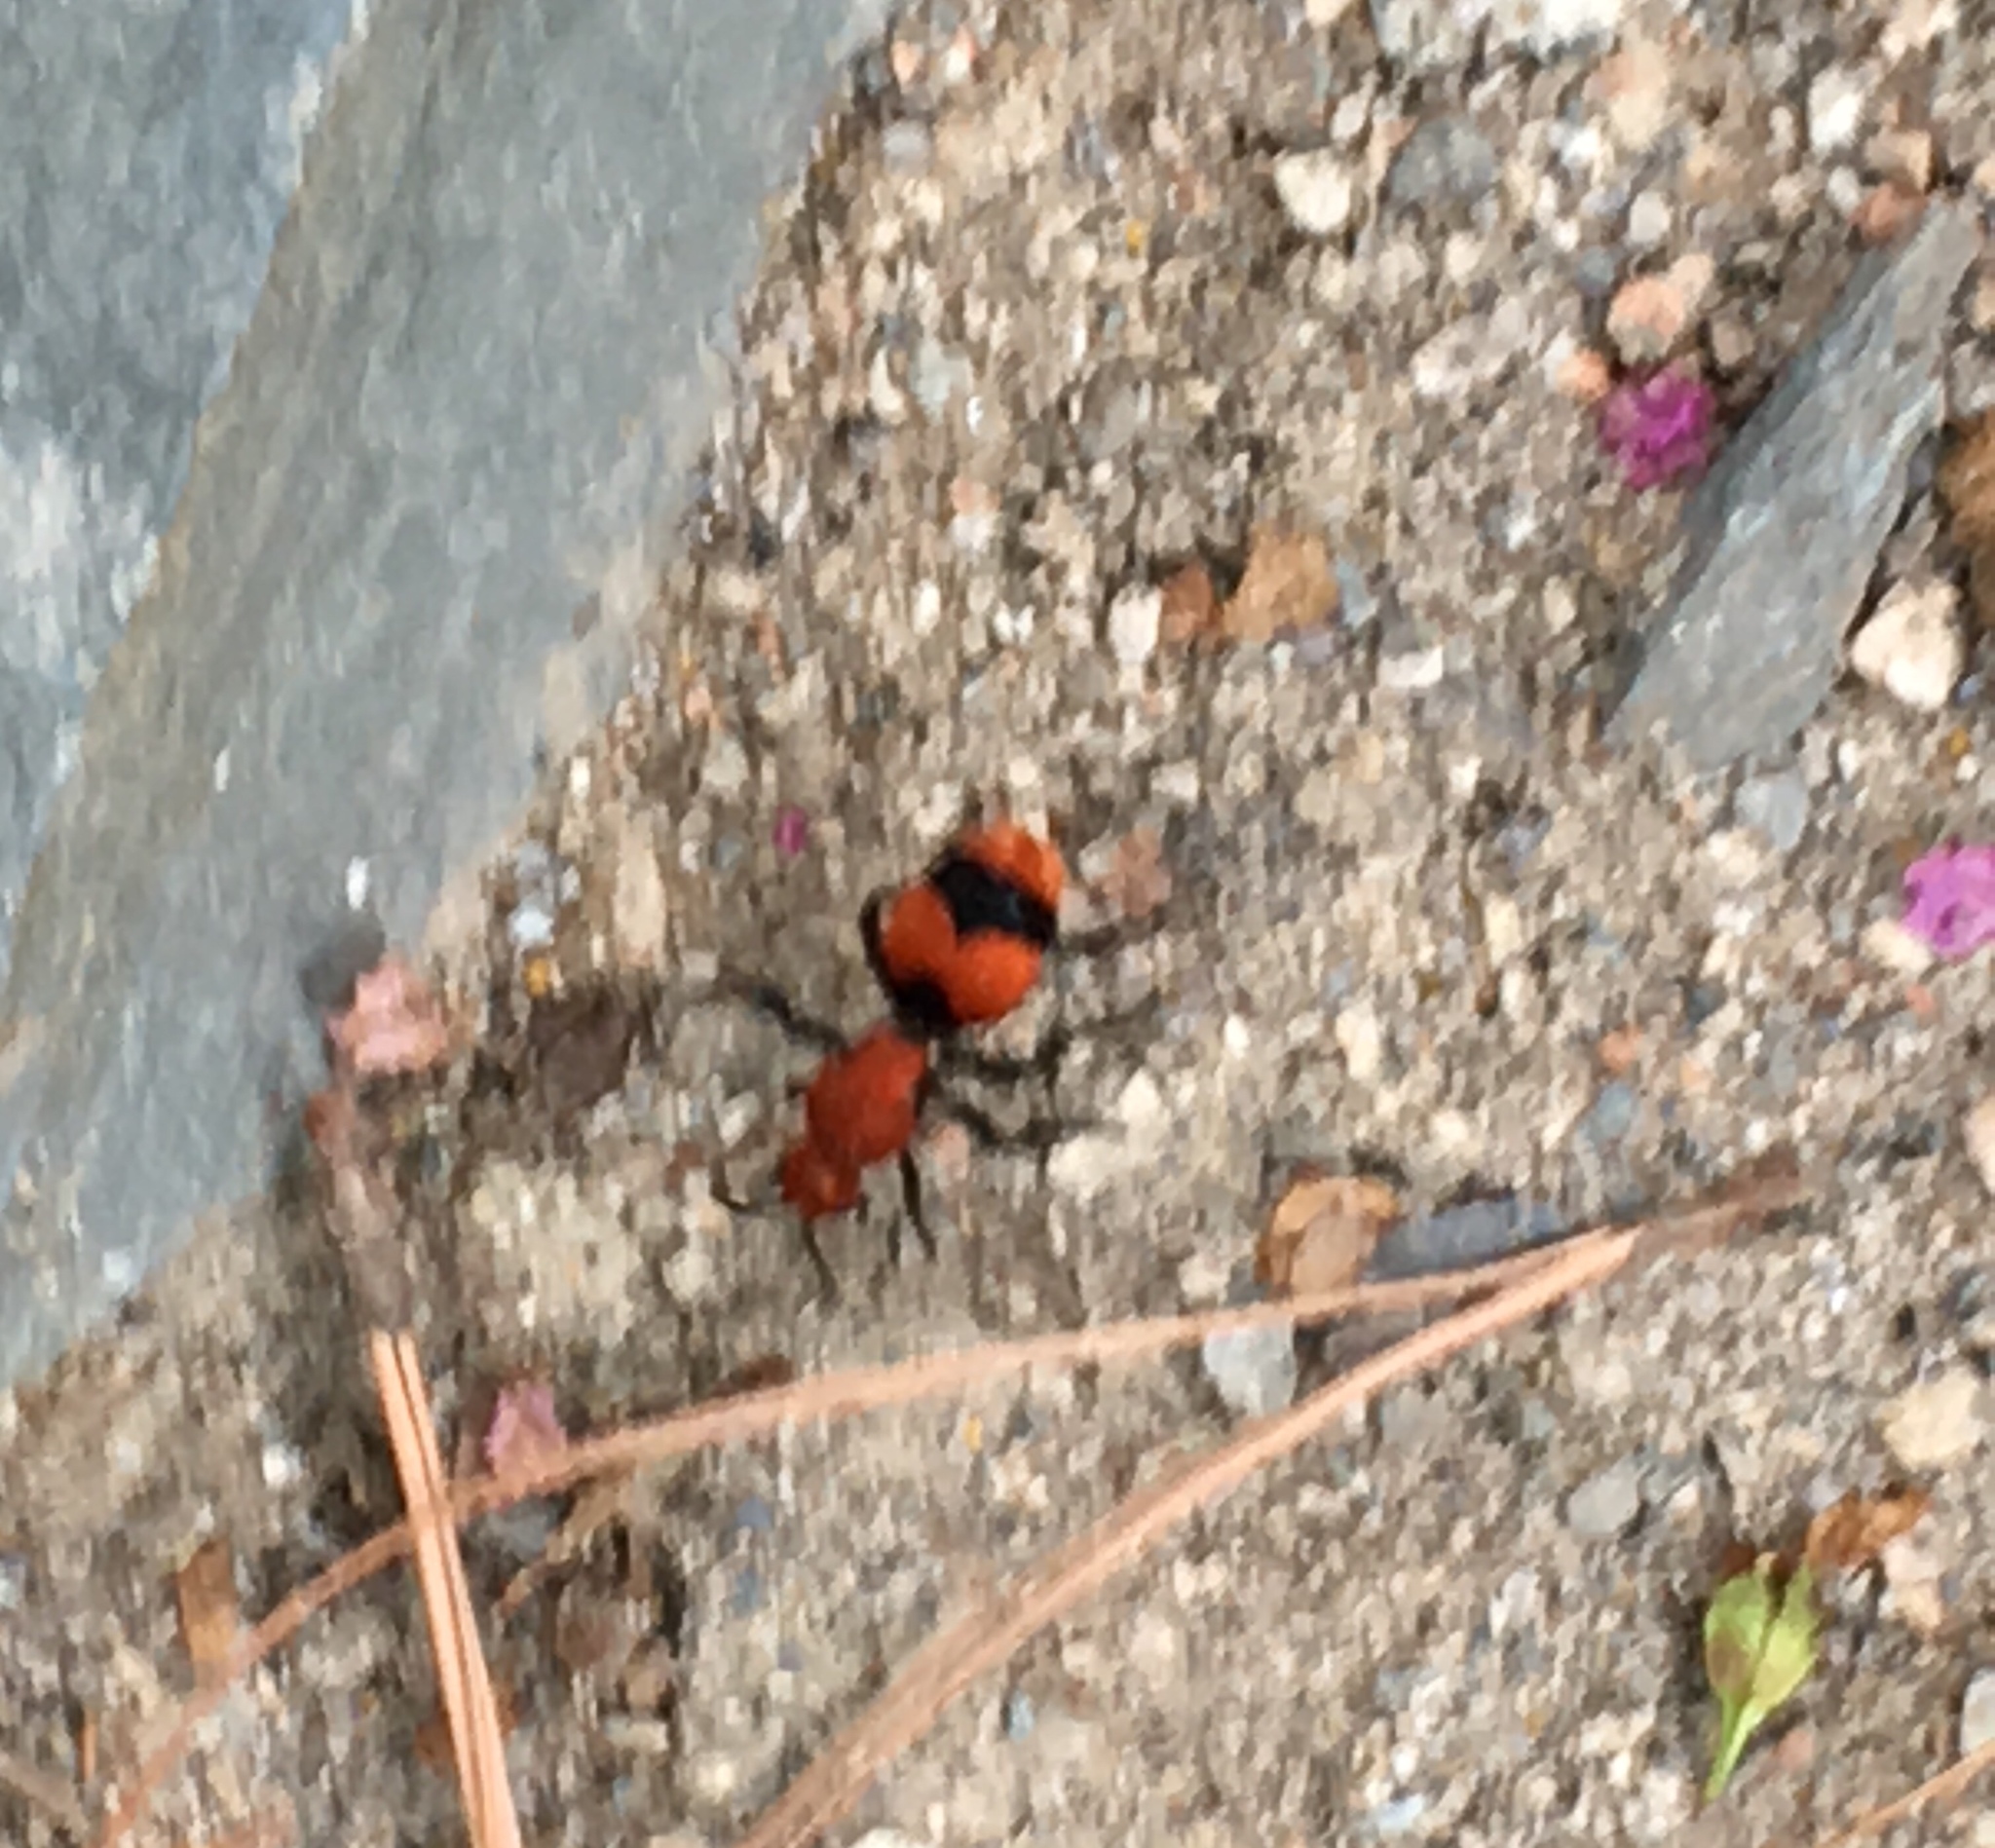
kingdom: Animalia
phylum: Arthropoda
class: Insecta
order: Hymenoptera
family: Mutillidae
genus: Dasymutilla
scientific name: Dasymutilla occidentalis
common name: Common eastern velvet ant
